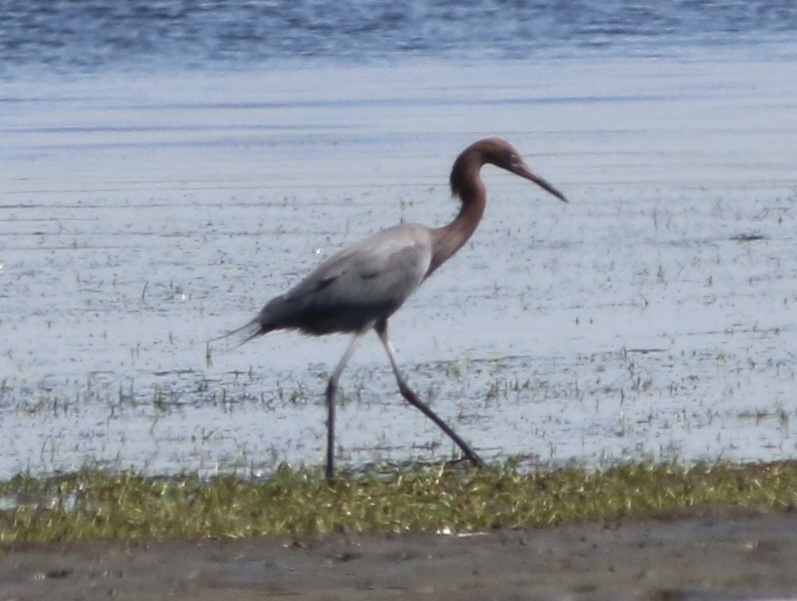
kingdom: Animalia
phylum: Chordata
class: Aves
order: Pelecaniformes
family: Ardeidae
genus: Egretta
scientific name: Egretta rufescens
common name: Reddish egret
